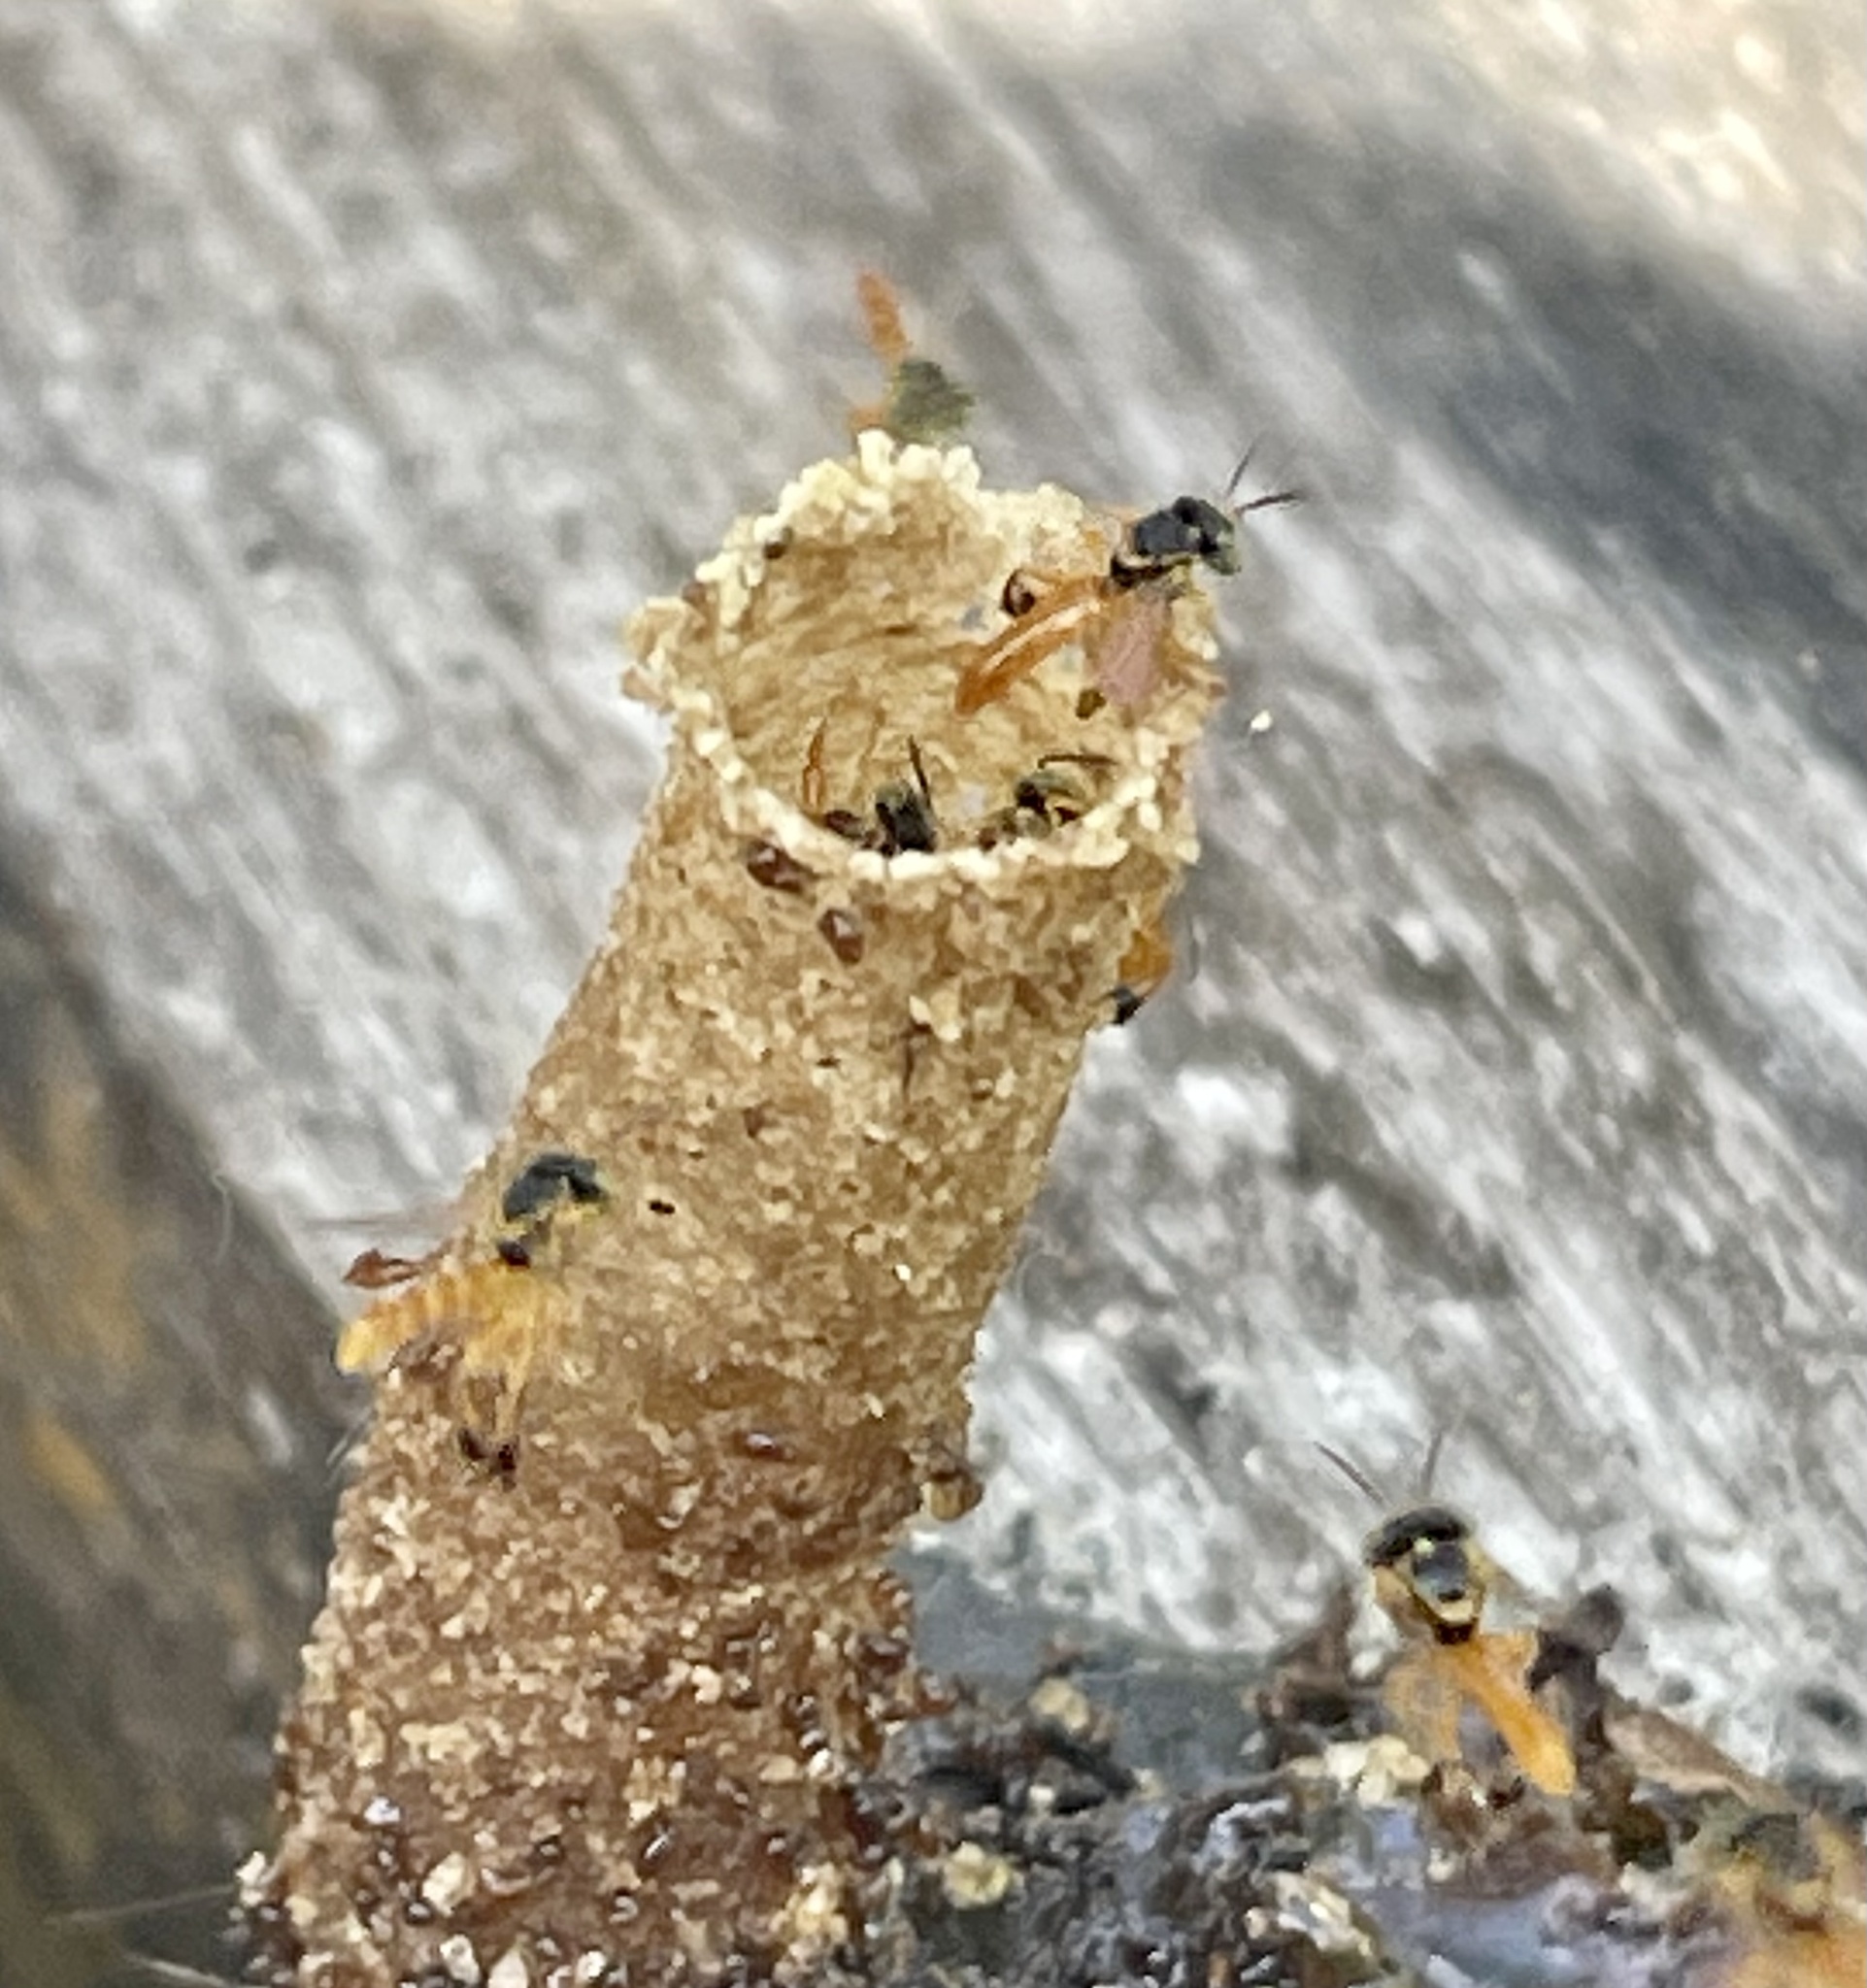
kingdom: Animalia
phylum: Arthropoda
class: Insecta
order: Hymenoptera
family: Apidae
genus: Tetragonisca
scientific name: Tetragonisca angustula
